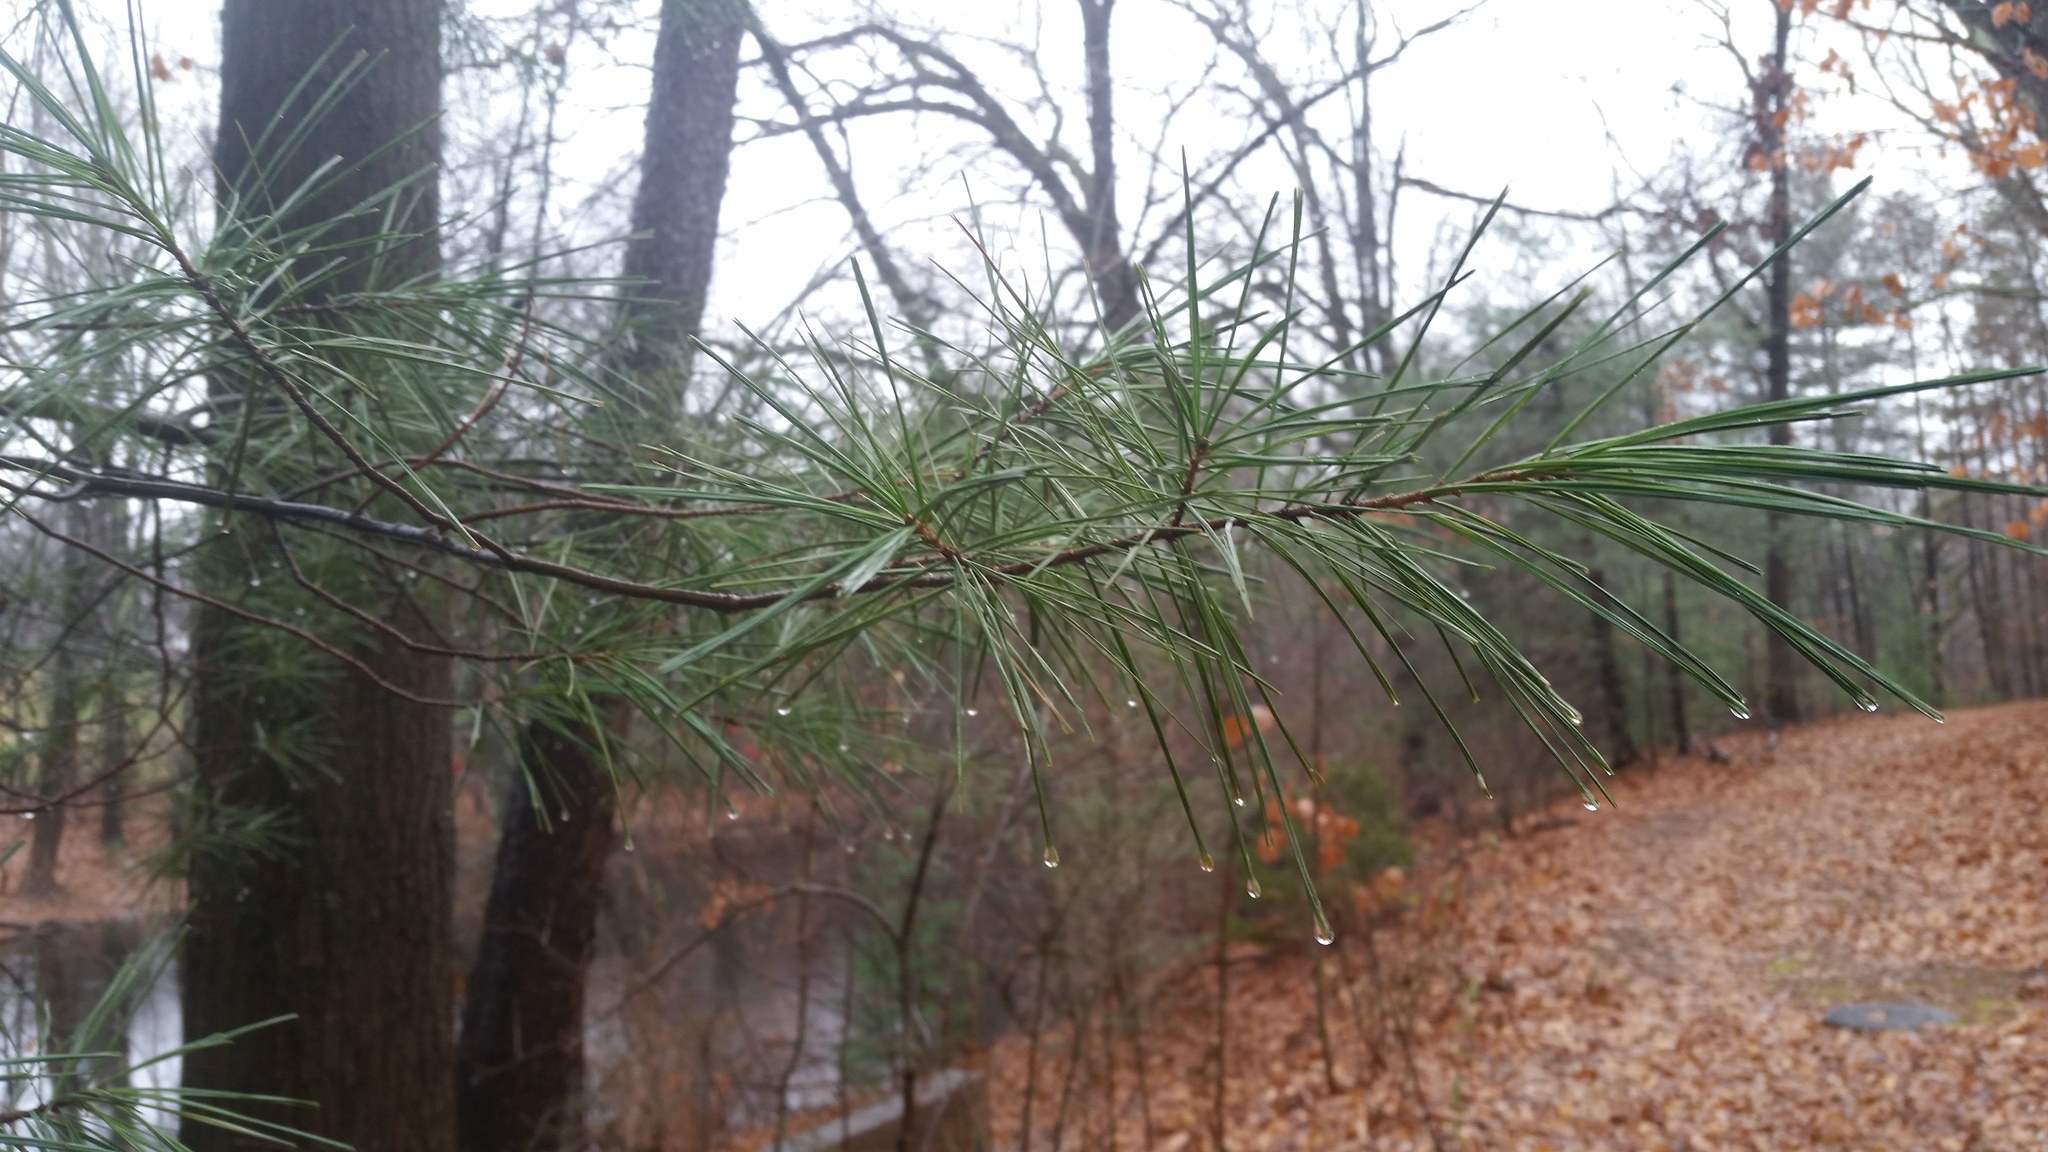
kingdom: Plantae
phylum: Tracheophyta
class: Pinopsida
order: Pinales
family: Pinaceae
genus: Pinus
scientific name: Pinus strobus
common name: Weymouth pine
